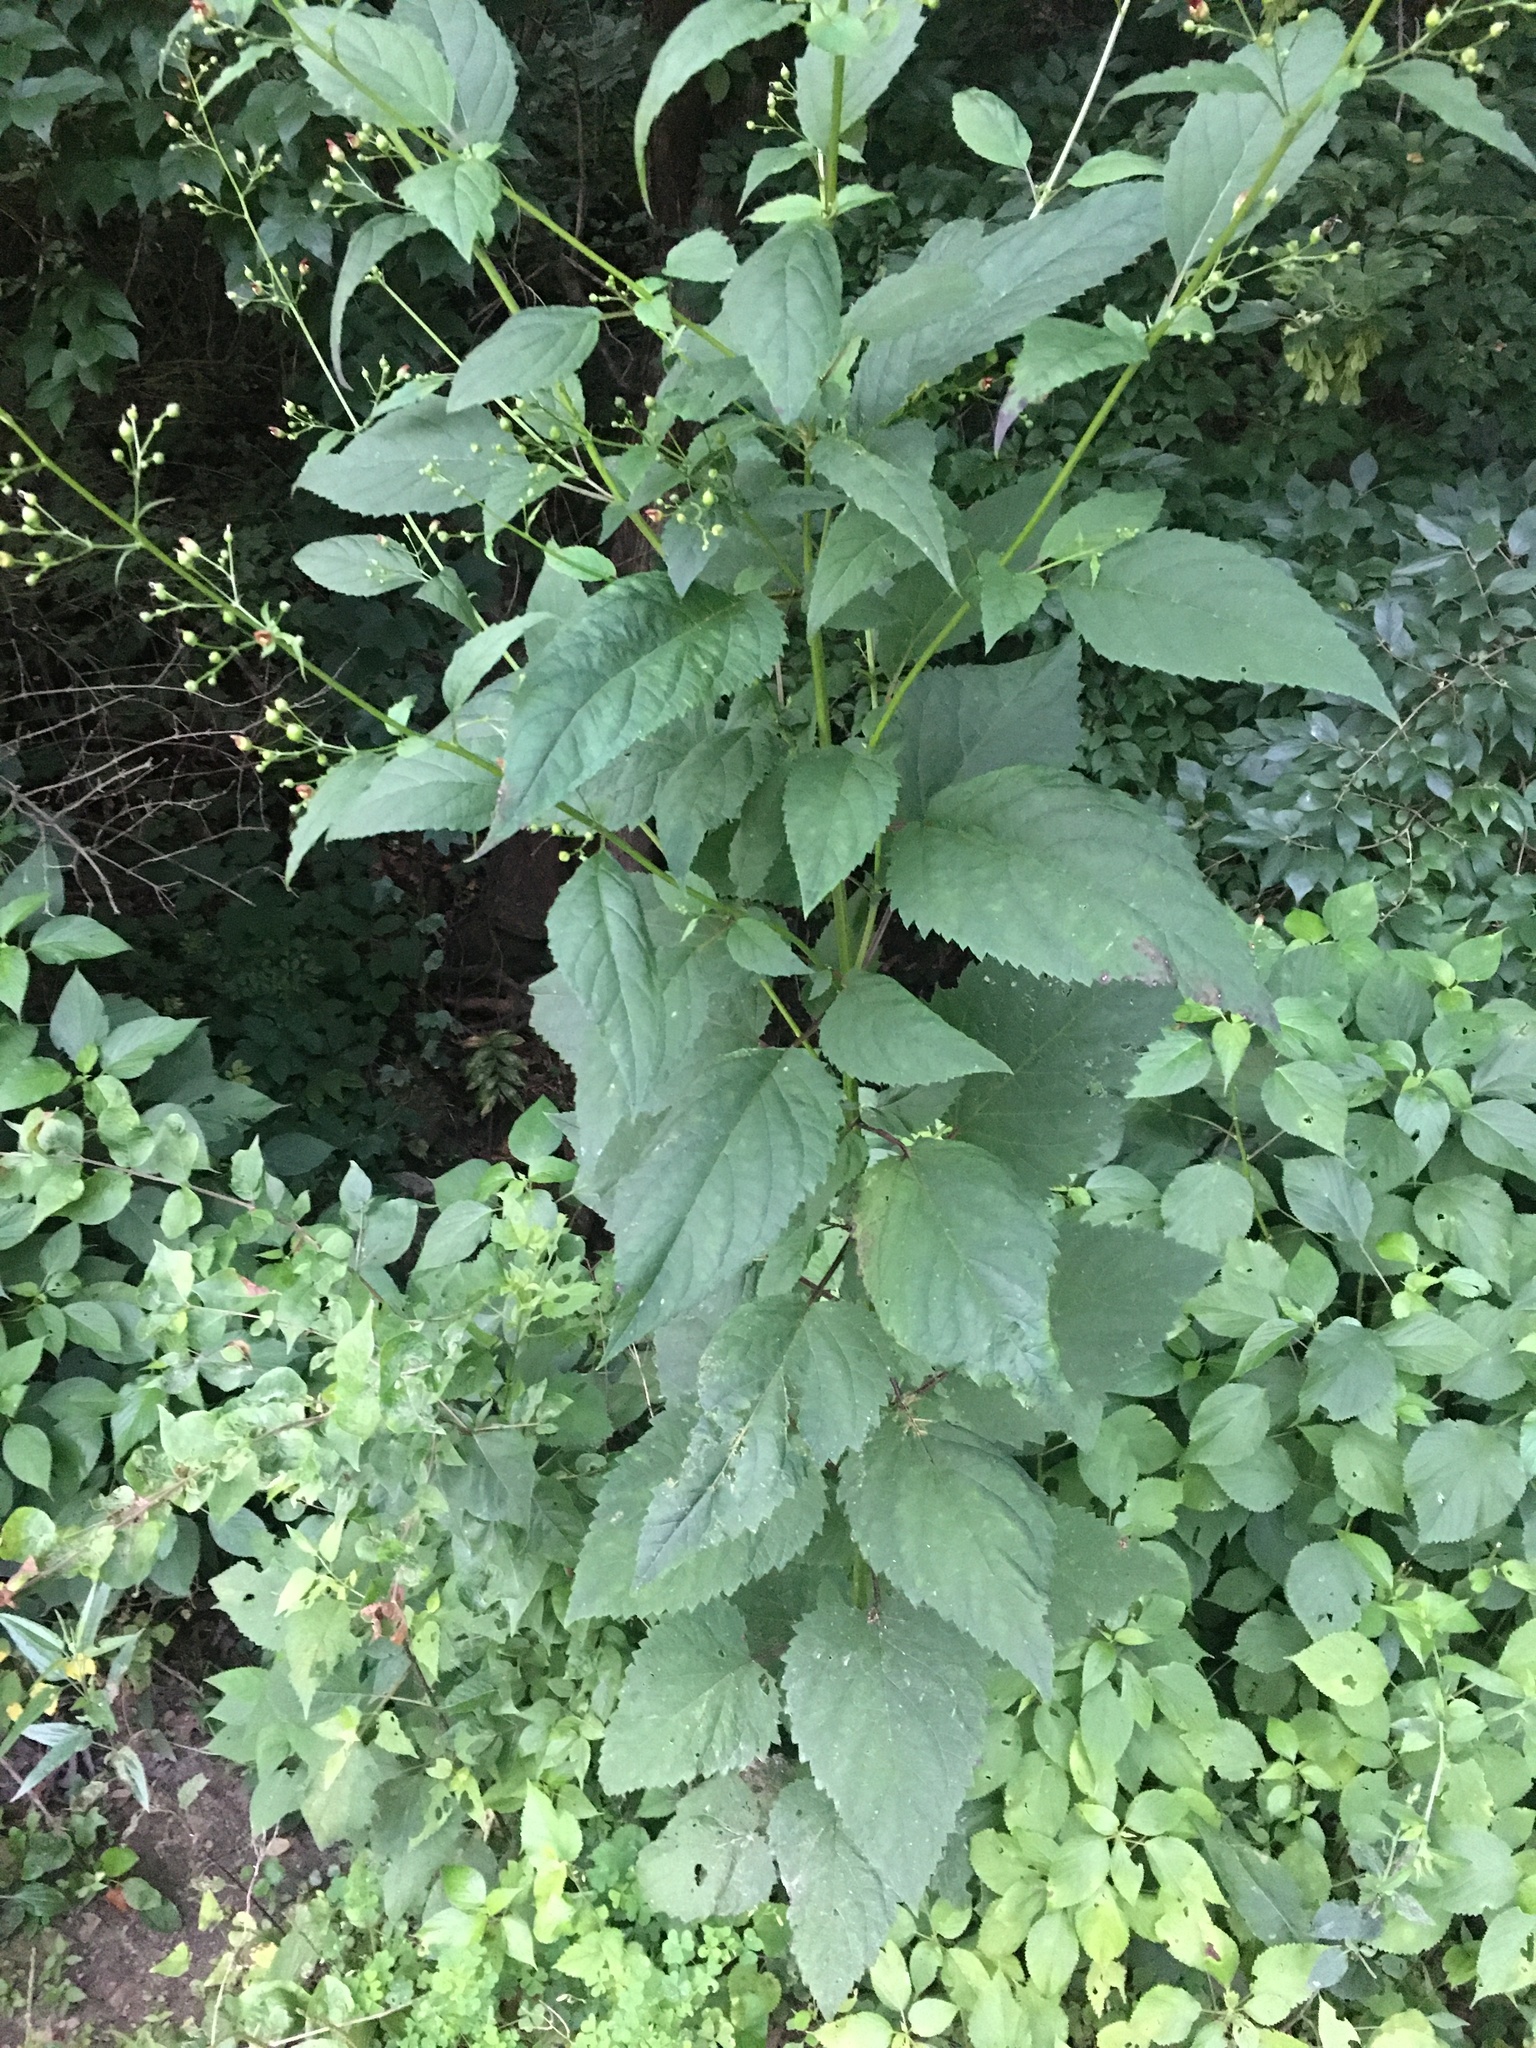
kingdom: Plantae
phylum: Tracheophyta
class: Magnoliopsida
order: Lamiales
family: Scrophulariaceae
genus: Scrophularia
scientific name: Scrophularia marilandica
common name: Eastern figwort
